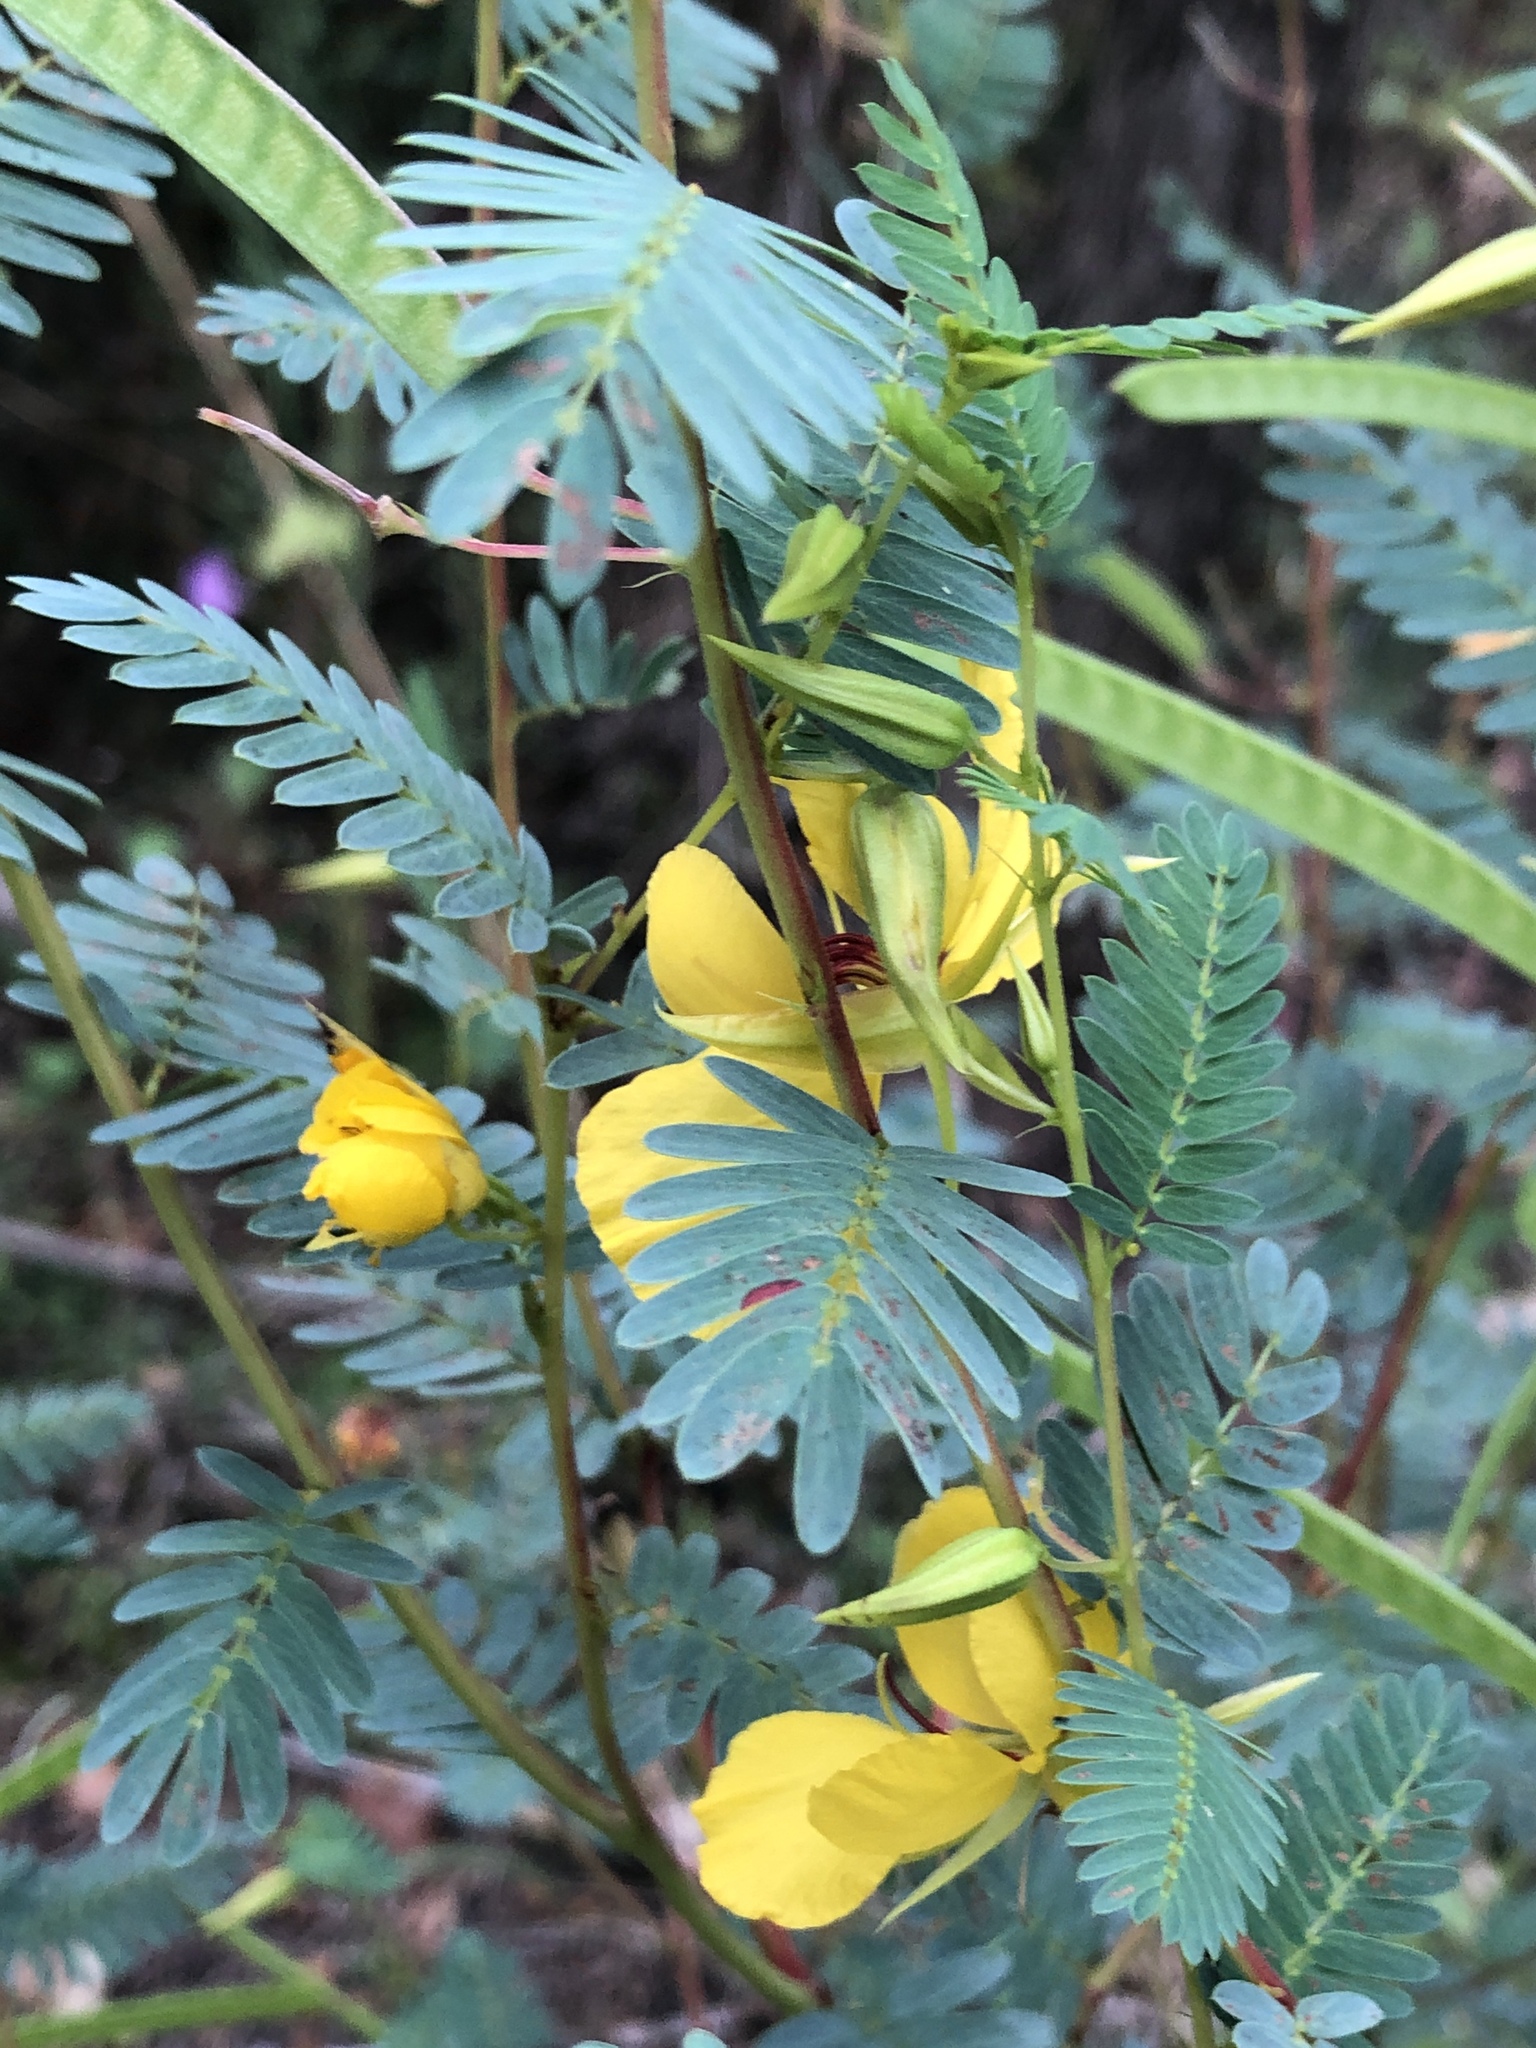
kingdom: Plantae
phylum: Tracheophyta
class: Magnoliopsida
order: Fabales
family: Fabaceae
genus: Chamaecrista
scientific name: Chamaecrista fasciculata
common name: Golden cassia
